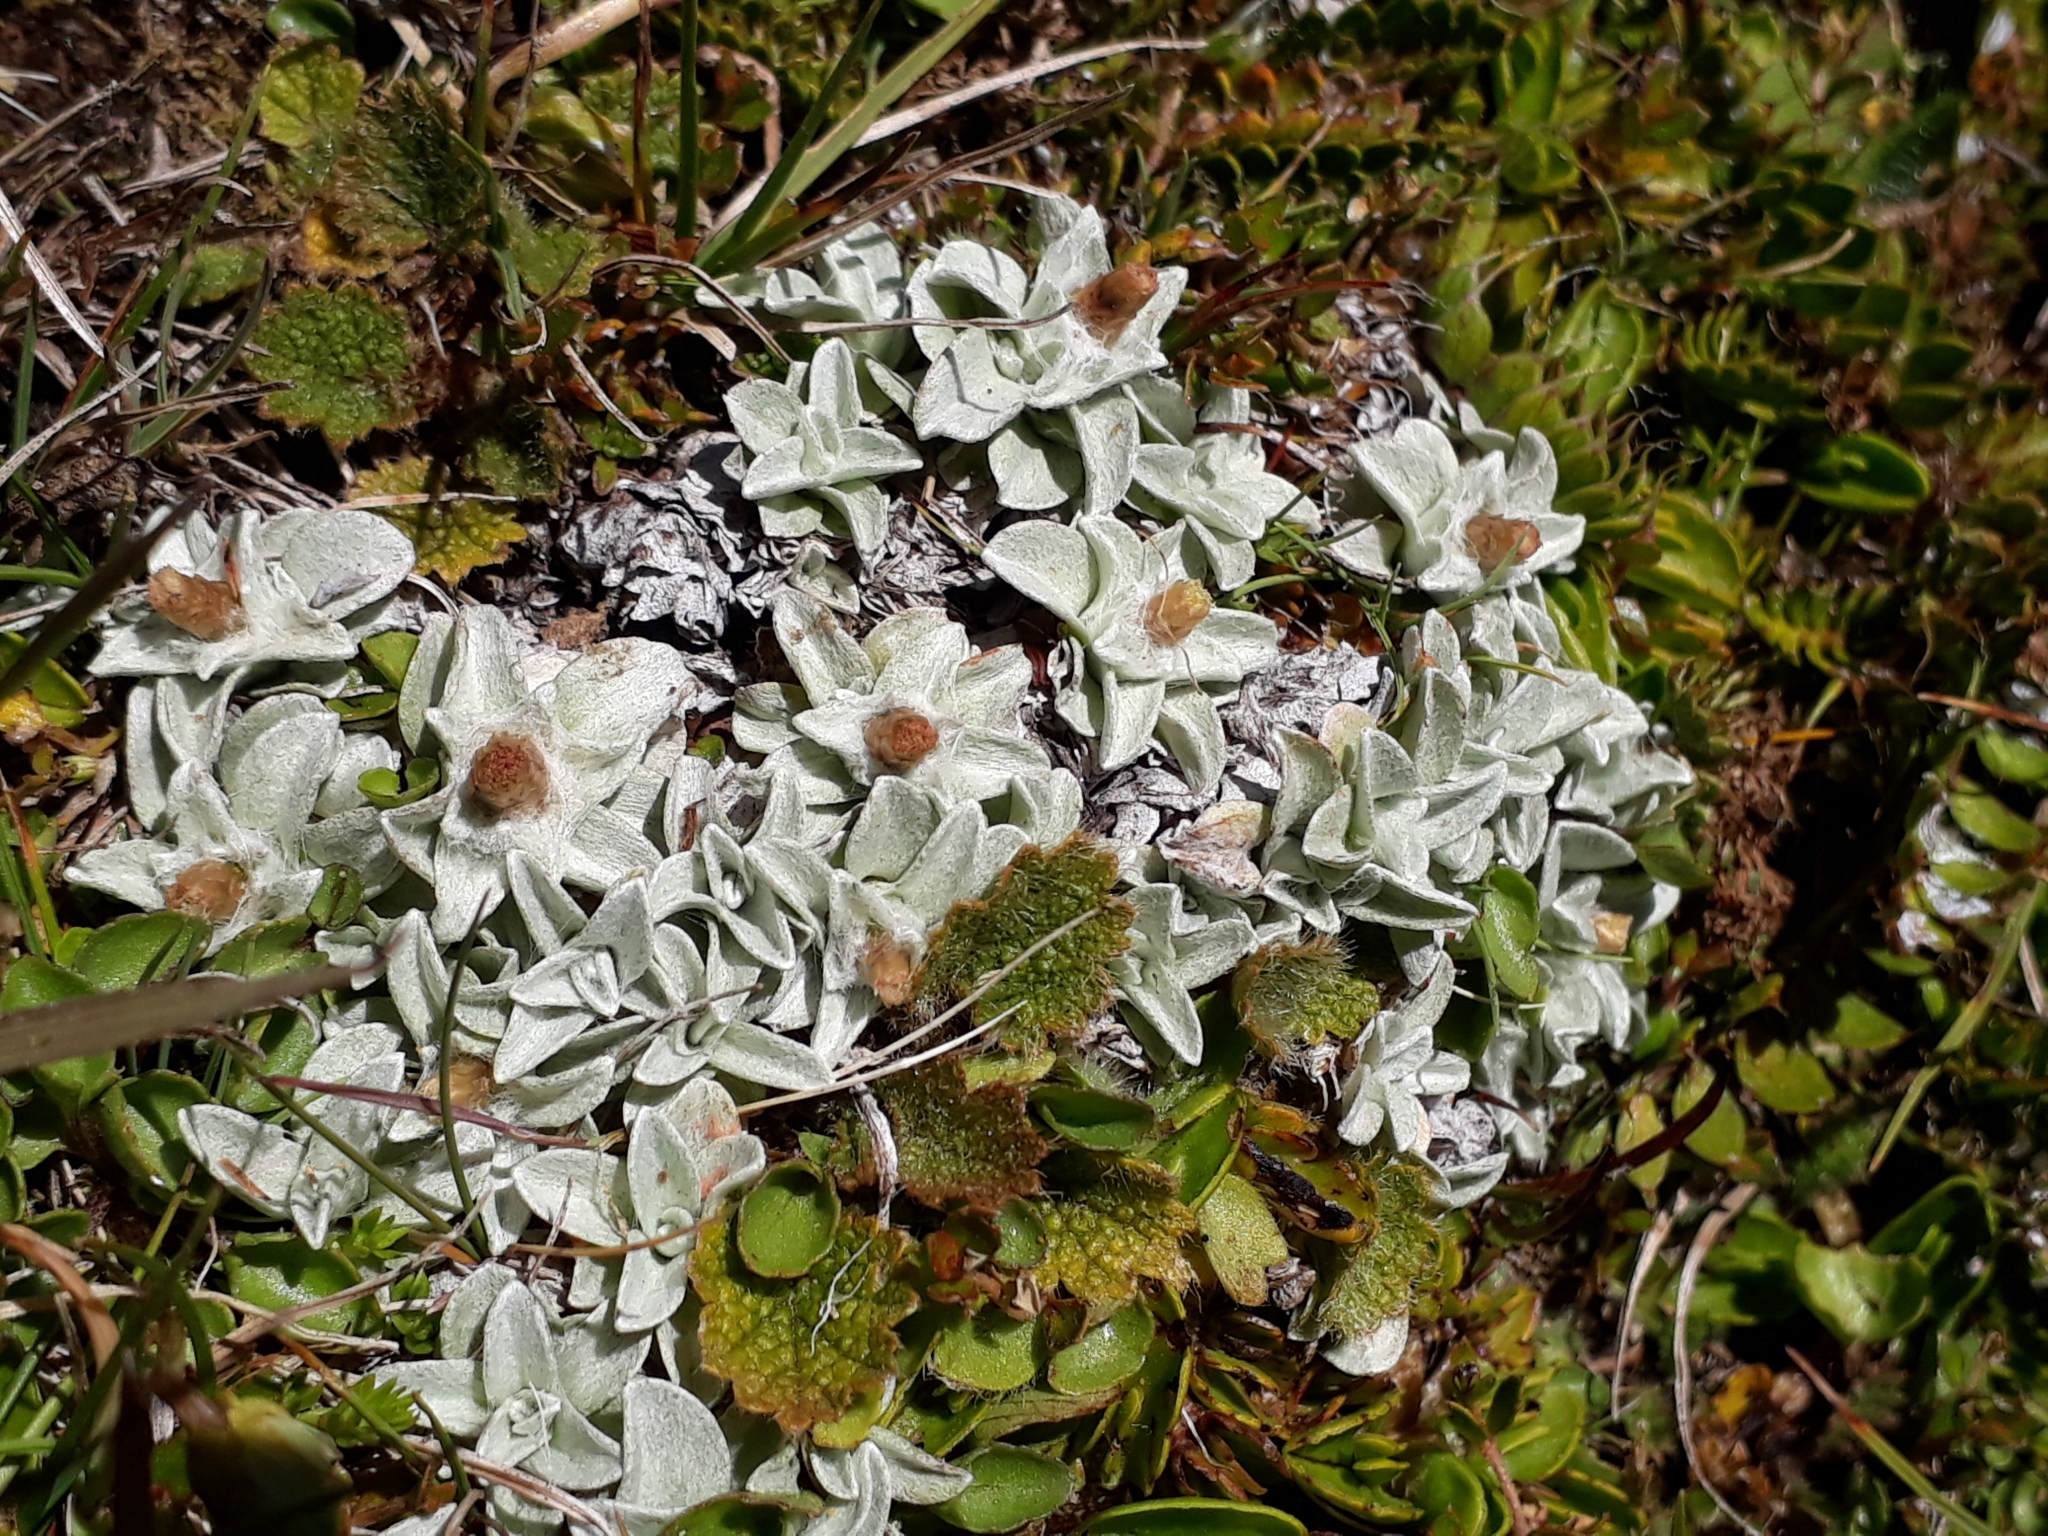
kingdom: Plantae
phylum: Tracheophyta
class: Magnoliopsida
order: Asterales
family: Asteraceae
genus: Argyrotegium
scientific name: Argyrotegium mackayi
